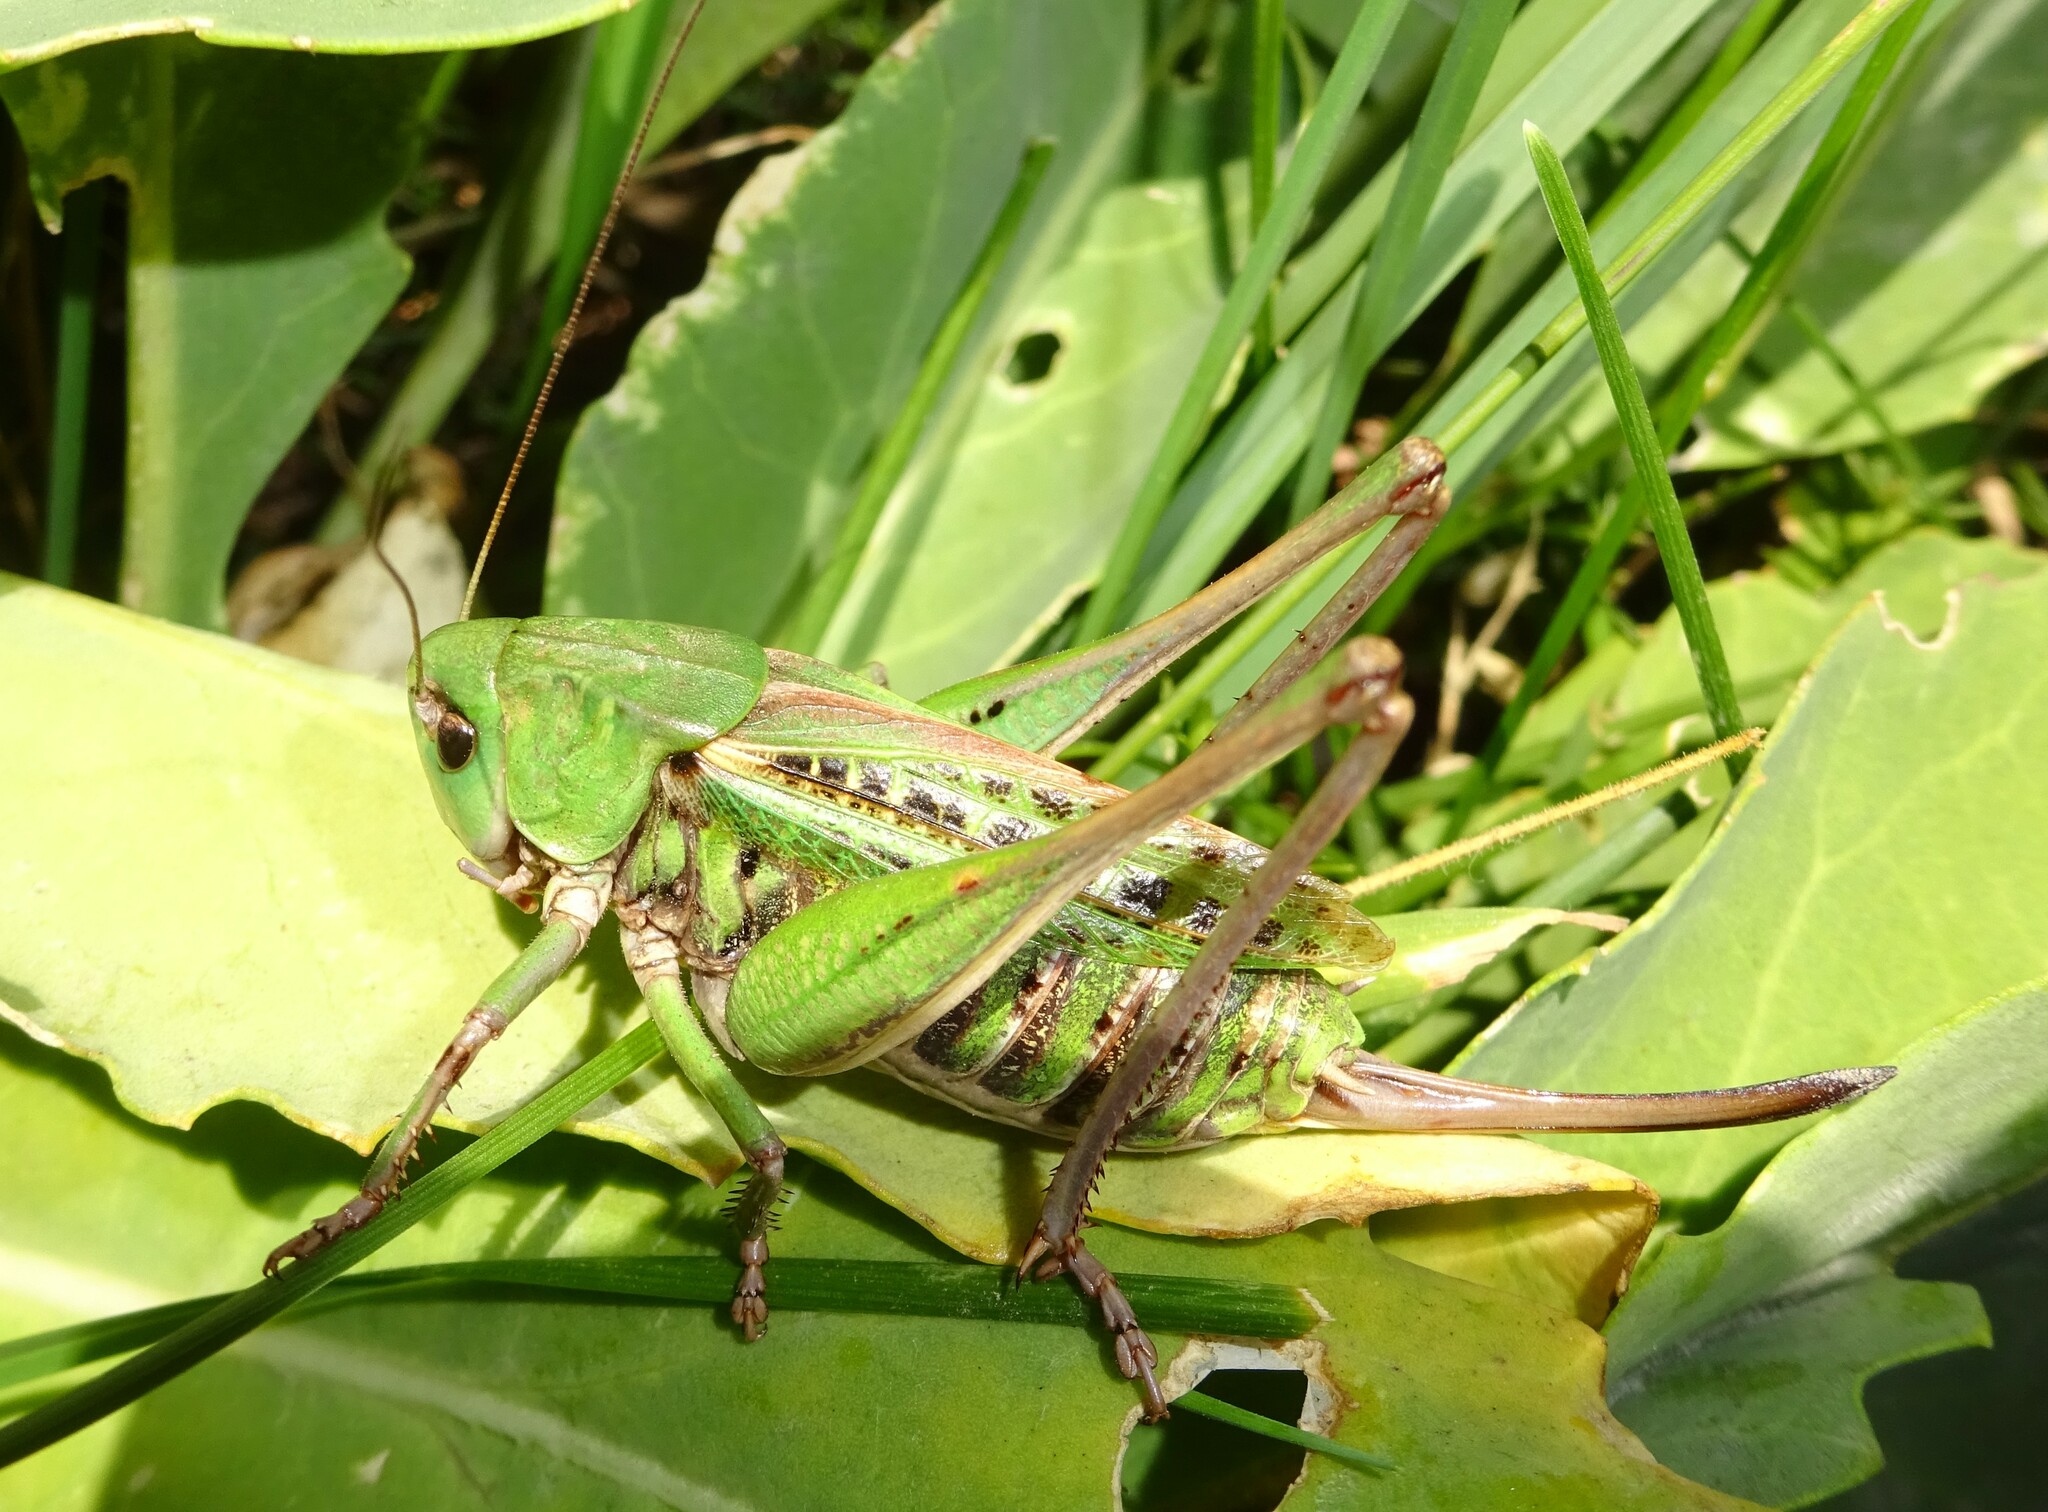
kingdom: Animalia
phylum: Arthropoda
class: Insecta
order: Orthoptera
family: Tettigoniidae
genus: Decticus
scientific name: Decticus verrucivorus
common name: Wart-biter
